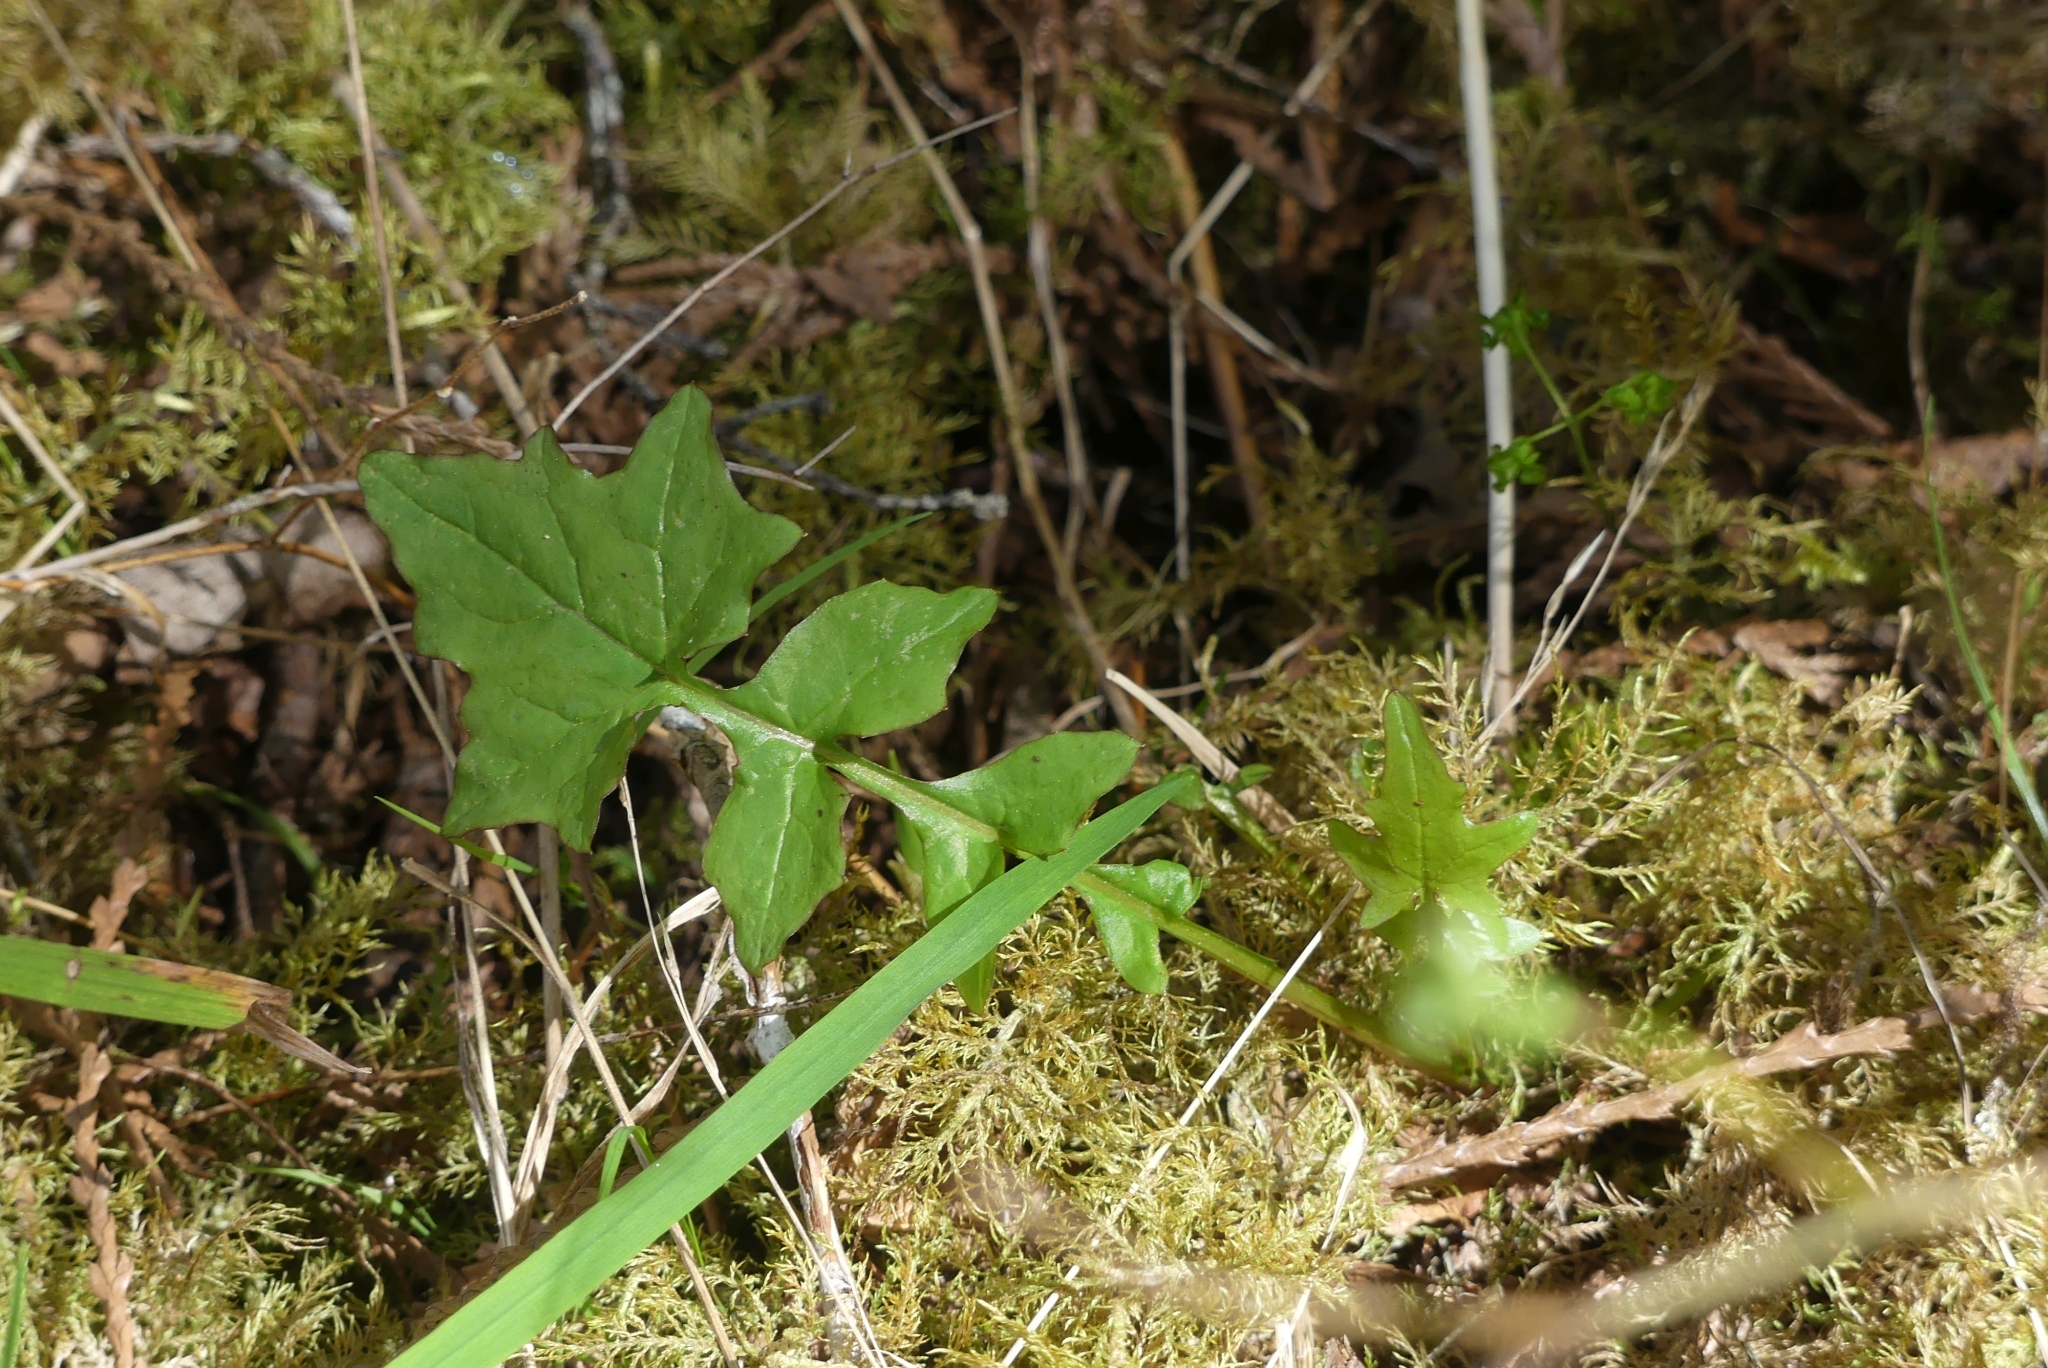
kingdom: Plantae
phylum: Tracheophyta
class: Magnoliopsida
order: Asterales
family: Asteraceae
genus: Mycelis
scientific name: Mycelis muralis
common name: Wall lettuce
